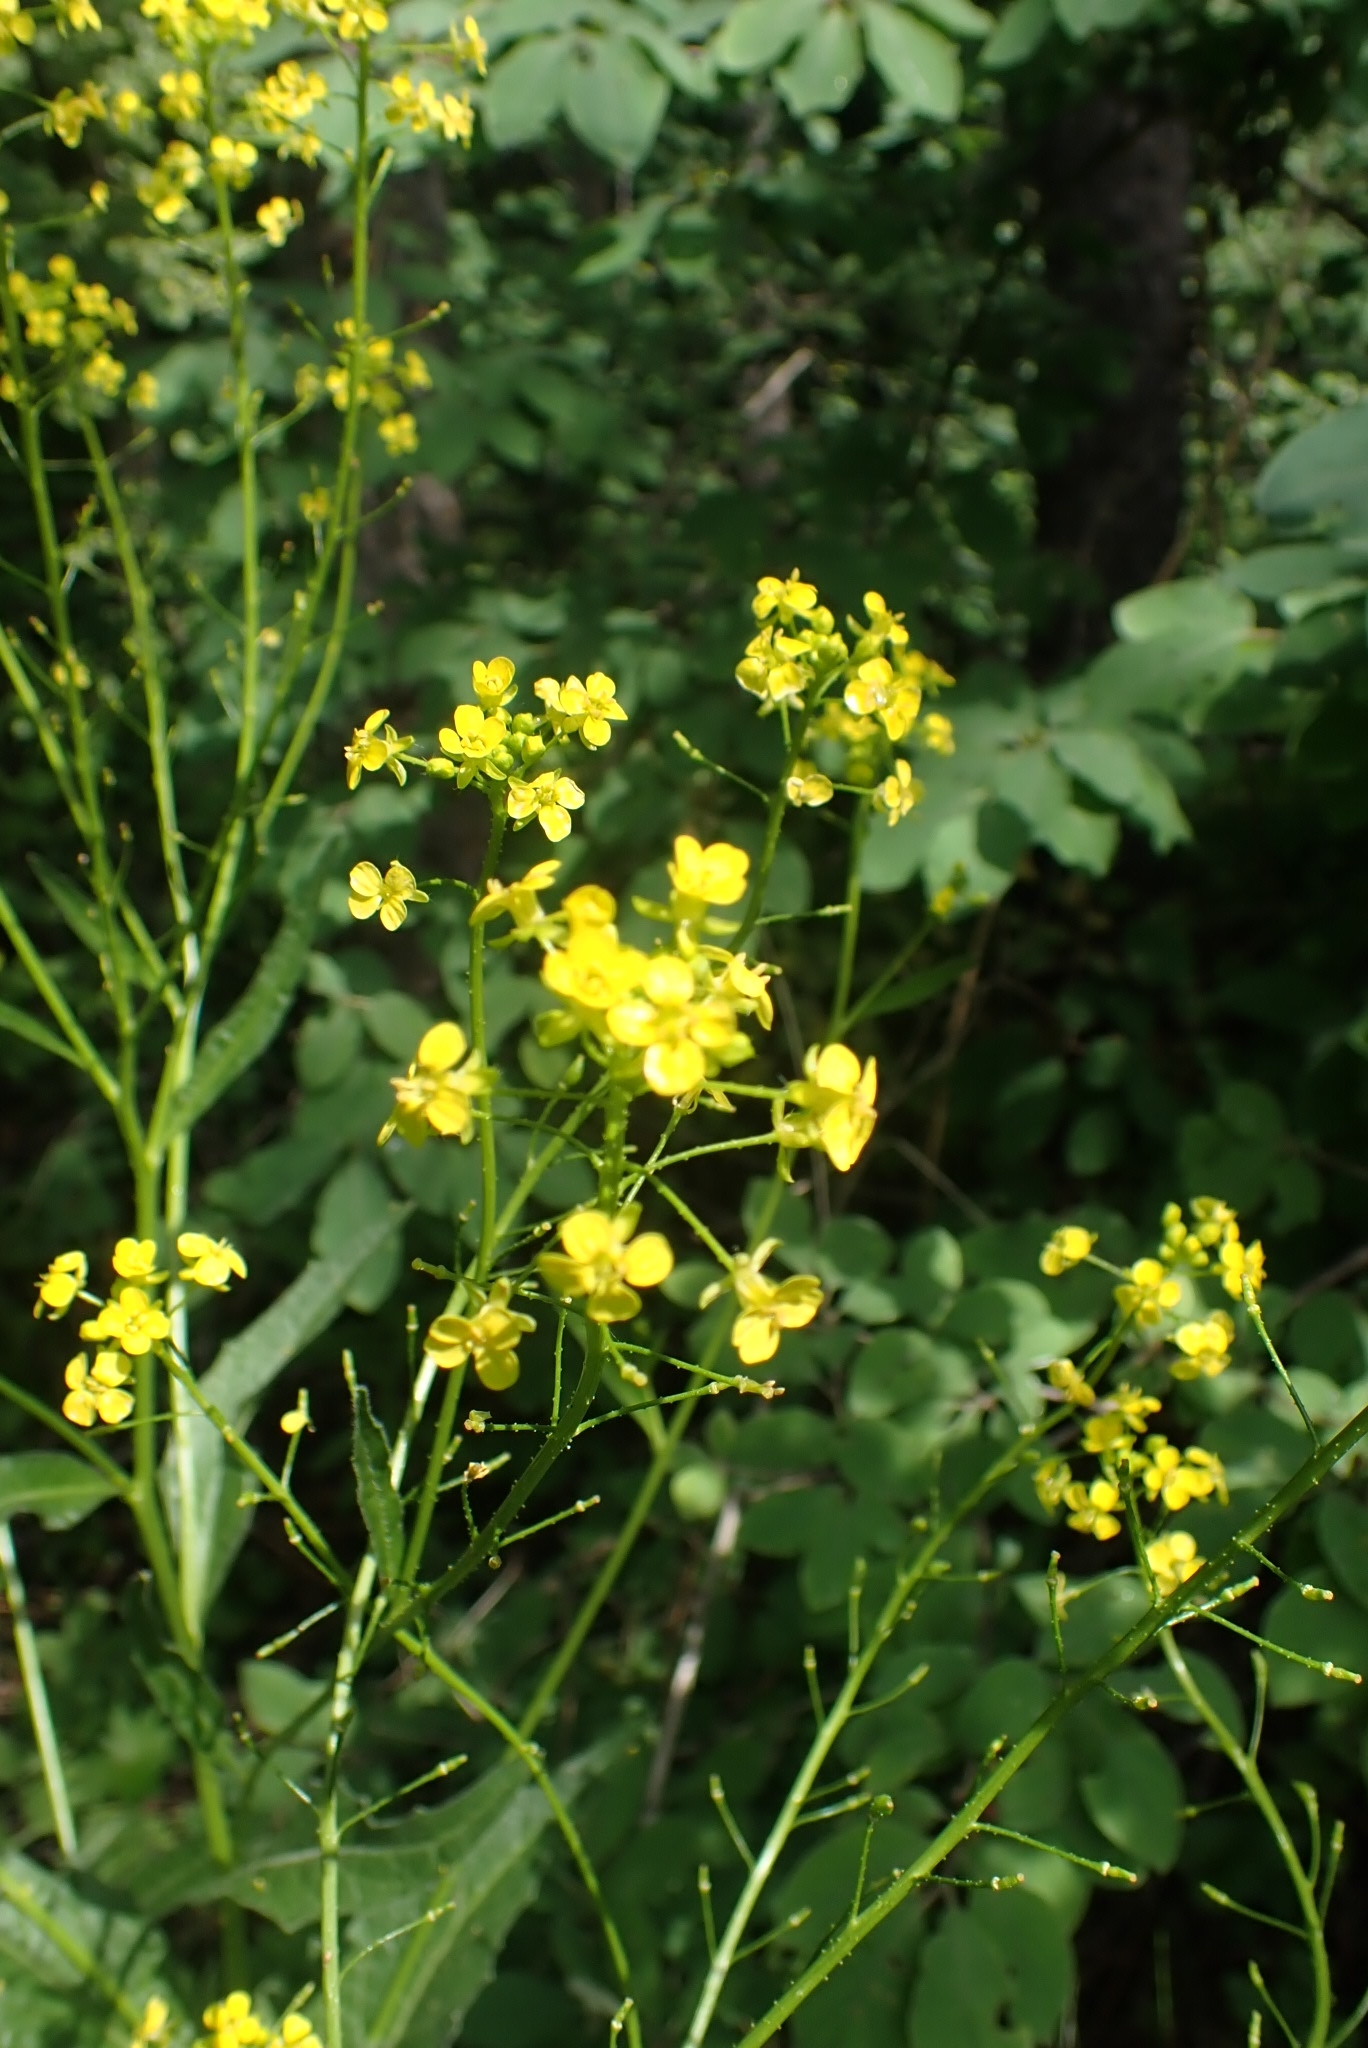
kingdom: Plantae
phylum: Tracheophyta
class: Magnoliopsida
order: Brassicales
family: Brassicaceae
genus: Bunias
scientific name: Bunias orientalis
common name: Warty-cabbage
